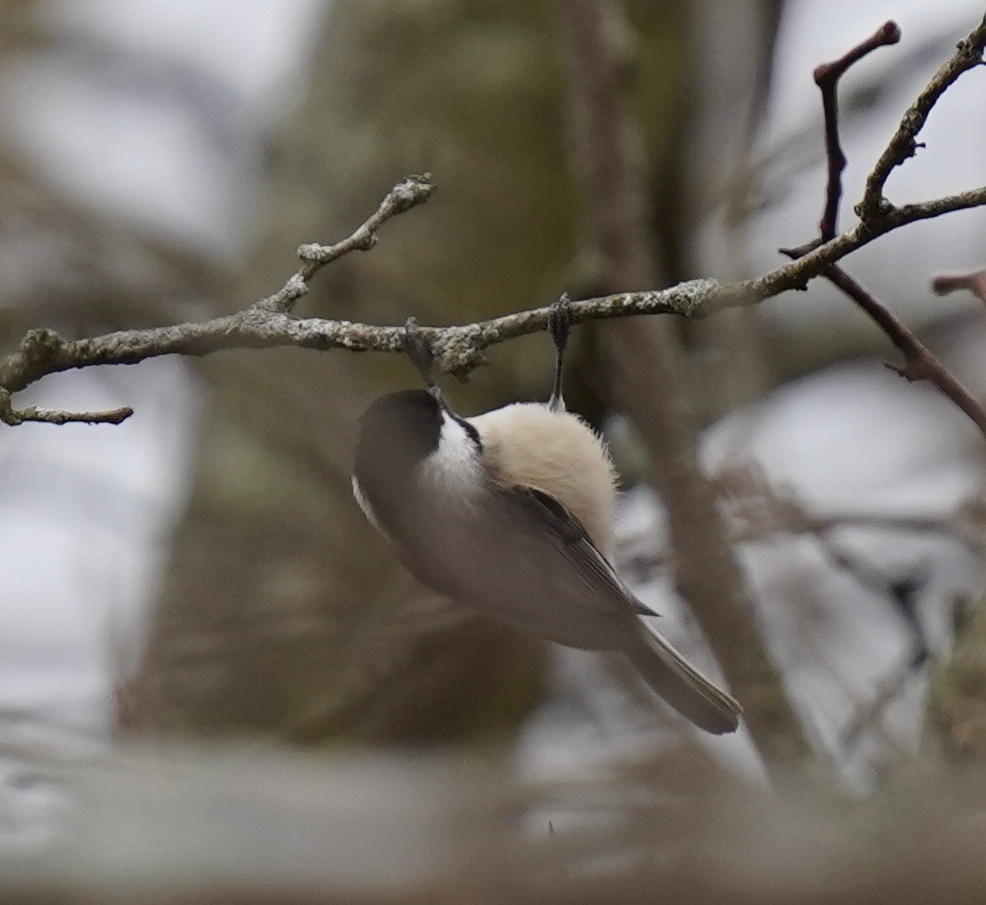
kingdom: Animalia
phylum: Chordata
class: Aves
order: Passeriformes
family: Paridae
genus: Poecile
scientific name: Poecile atricapillus
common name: Black-capped chickadee
